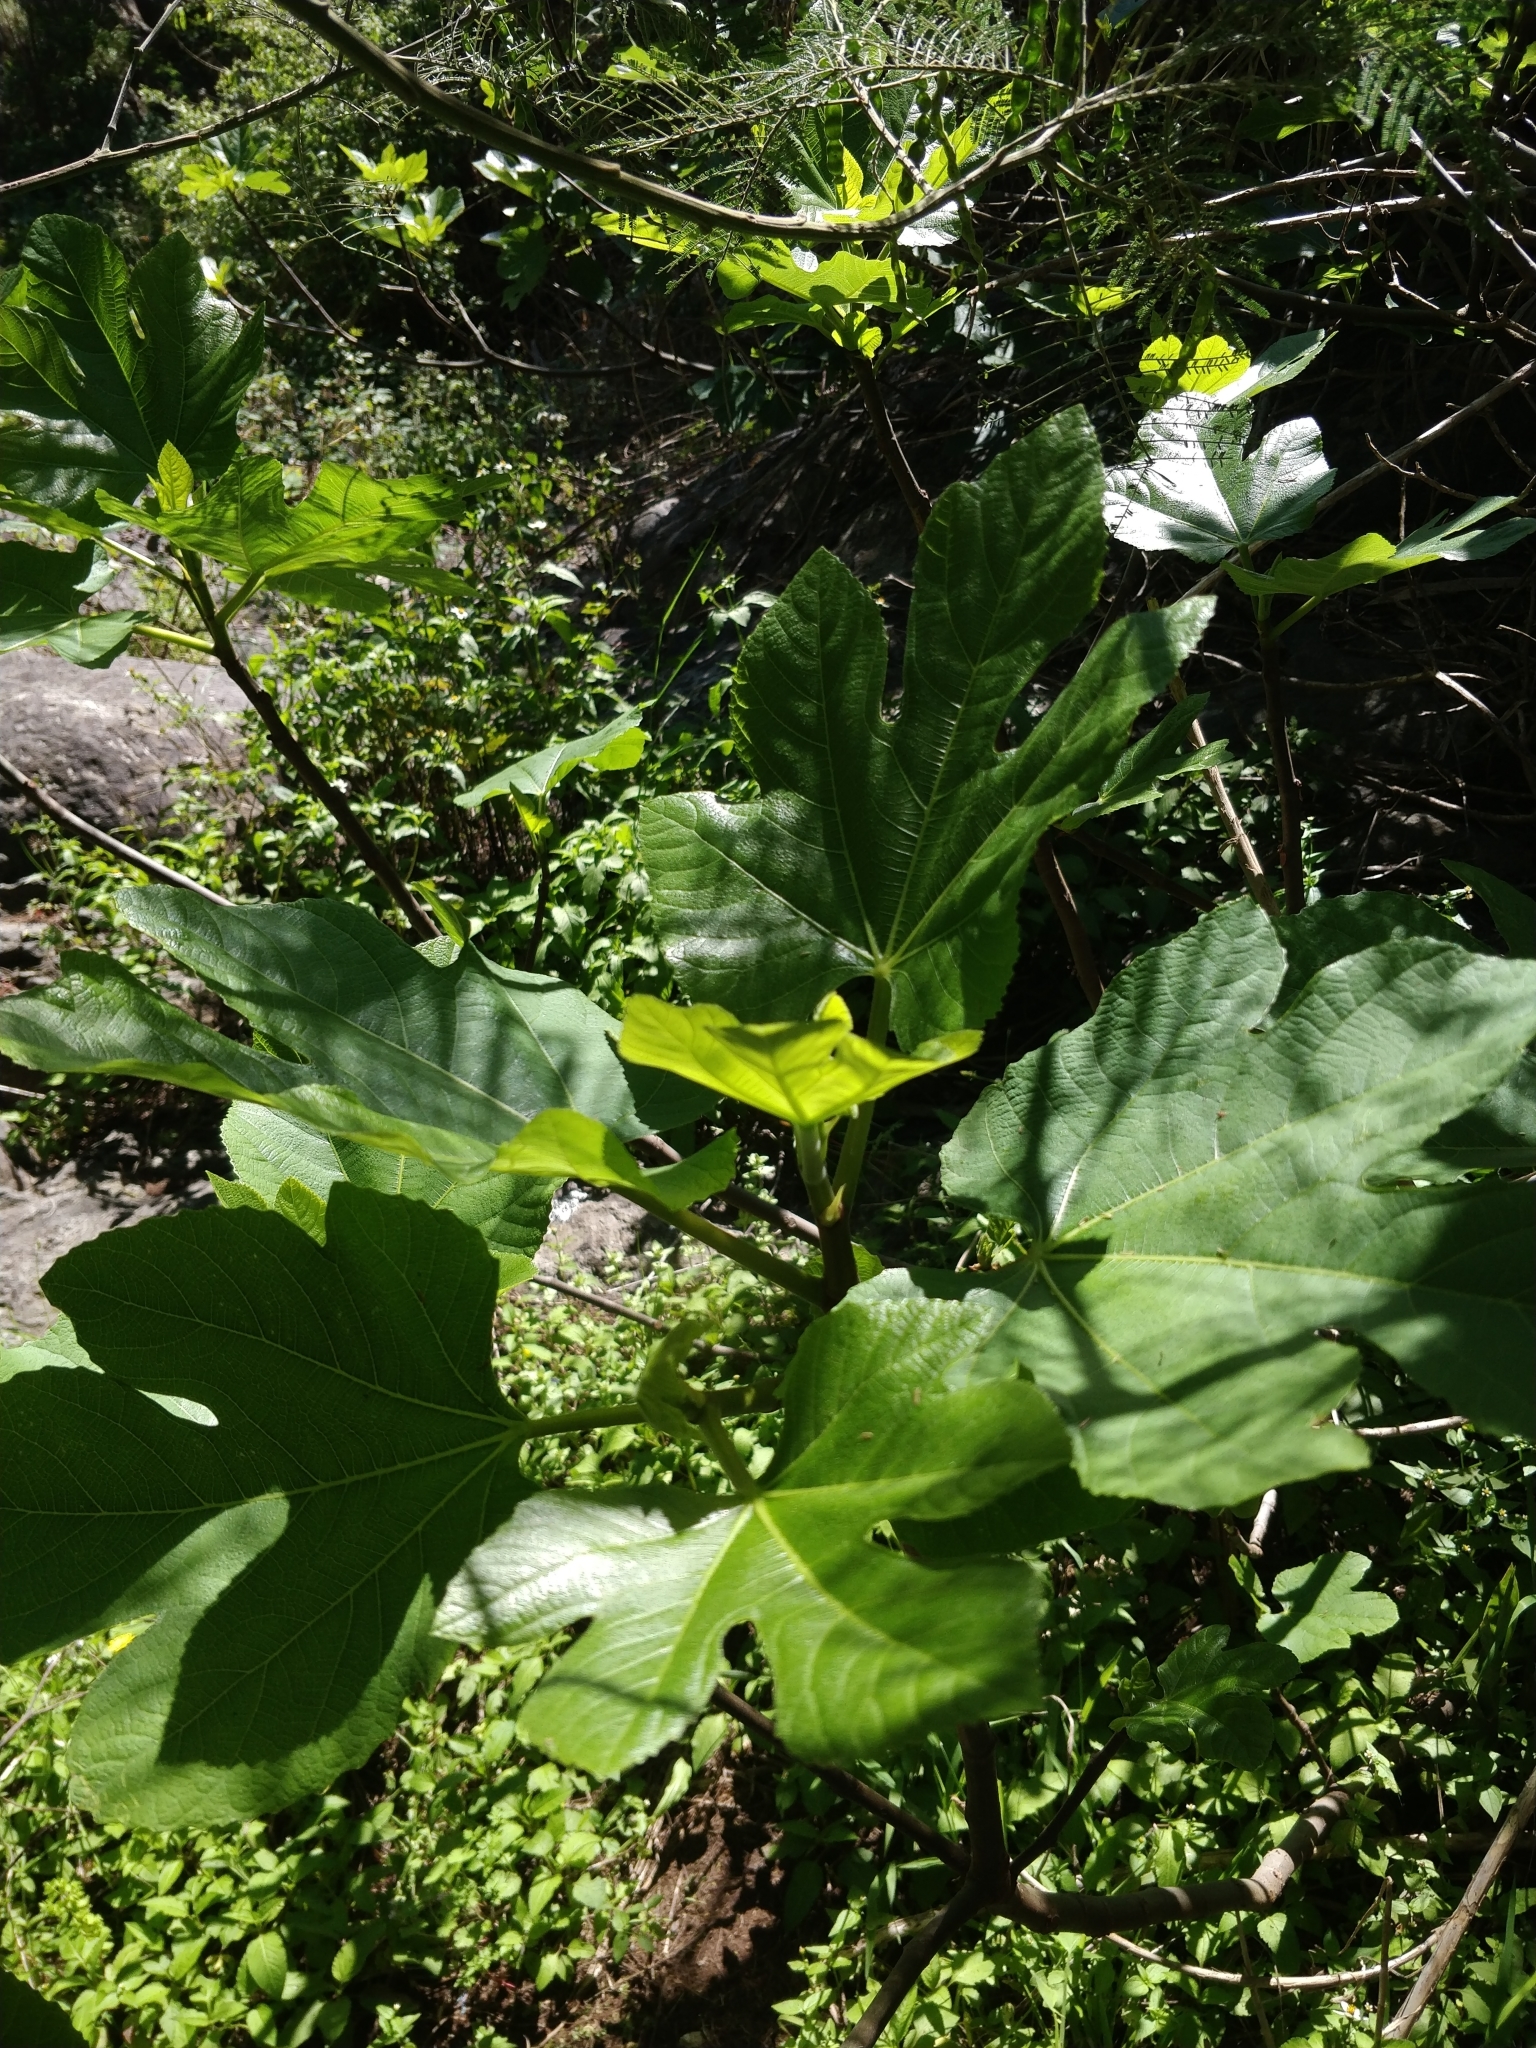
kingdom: Plantae
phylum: Tracheophyta
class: Magnoliopsida
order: Rosales
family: Moraceae
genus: Ficus
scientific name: Ficus carica
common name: Fig
